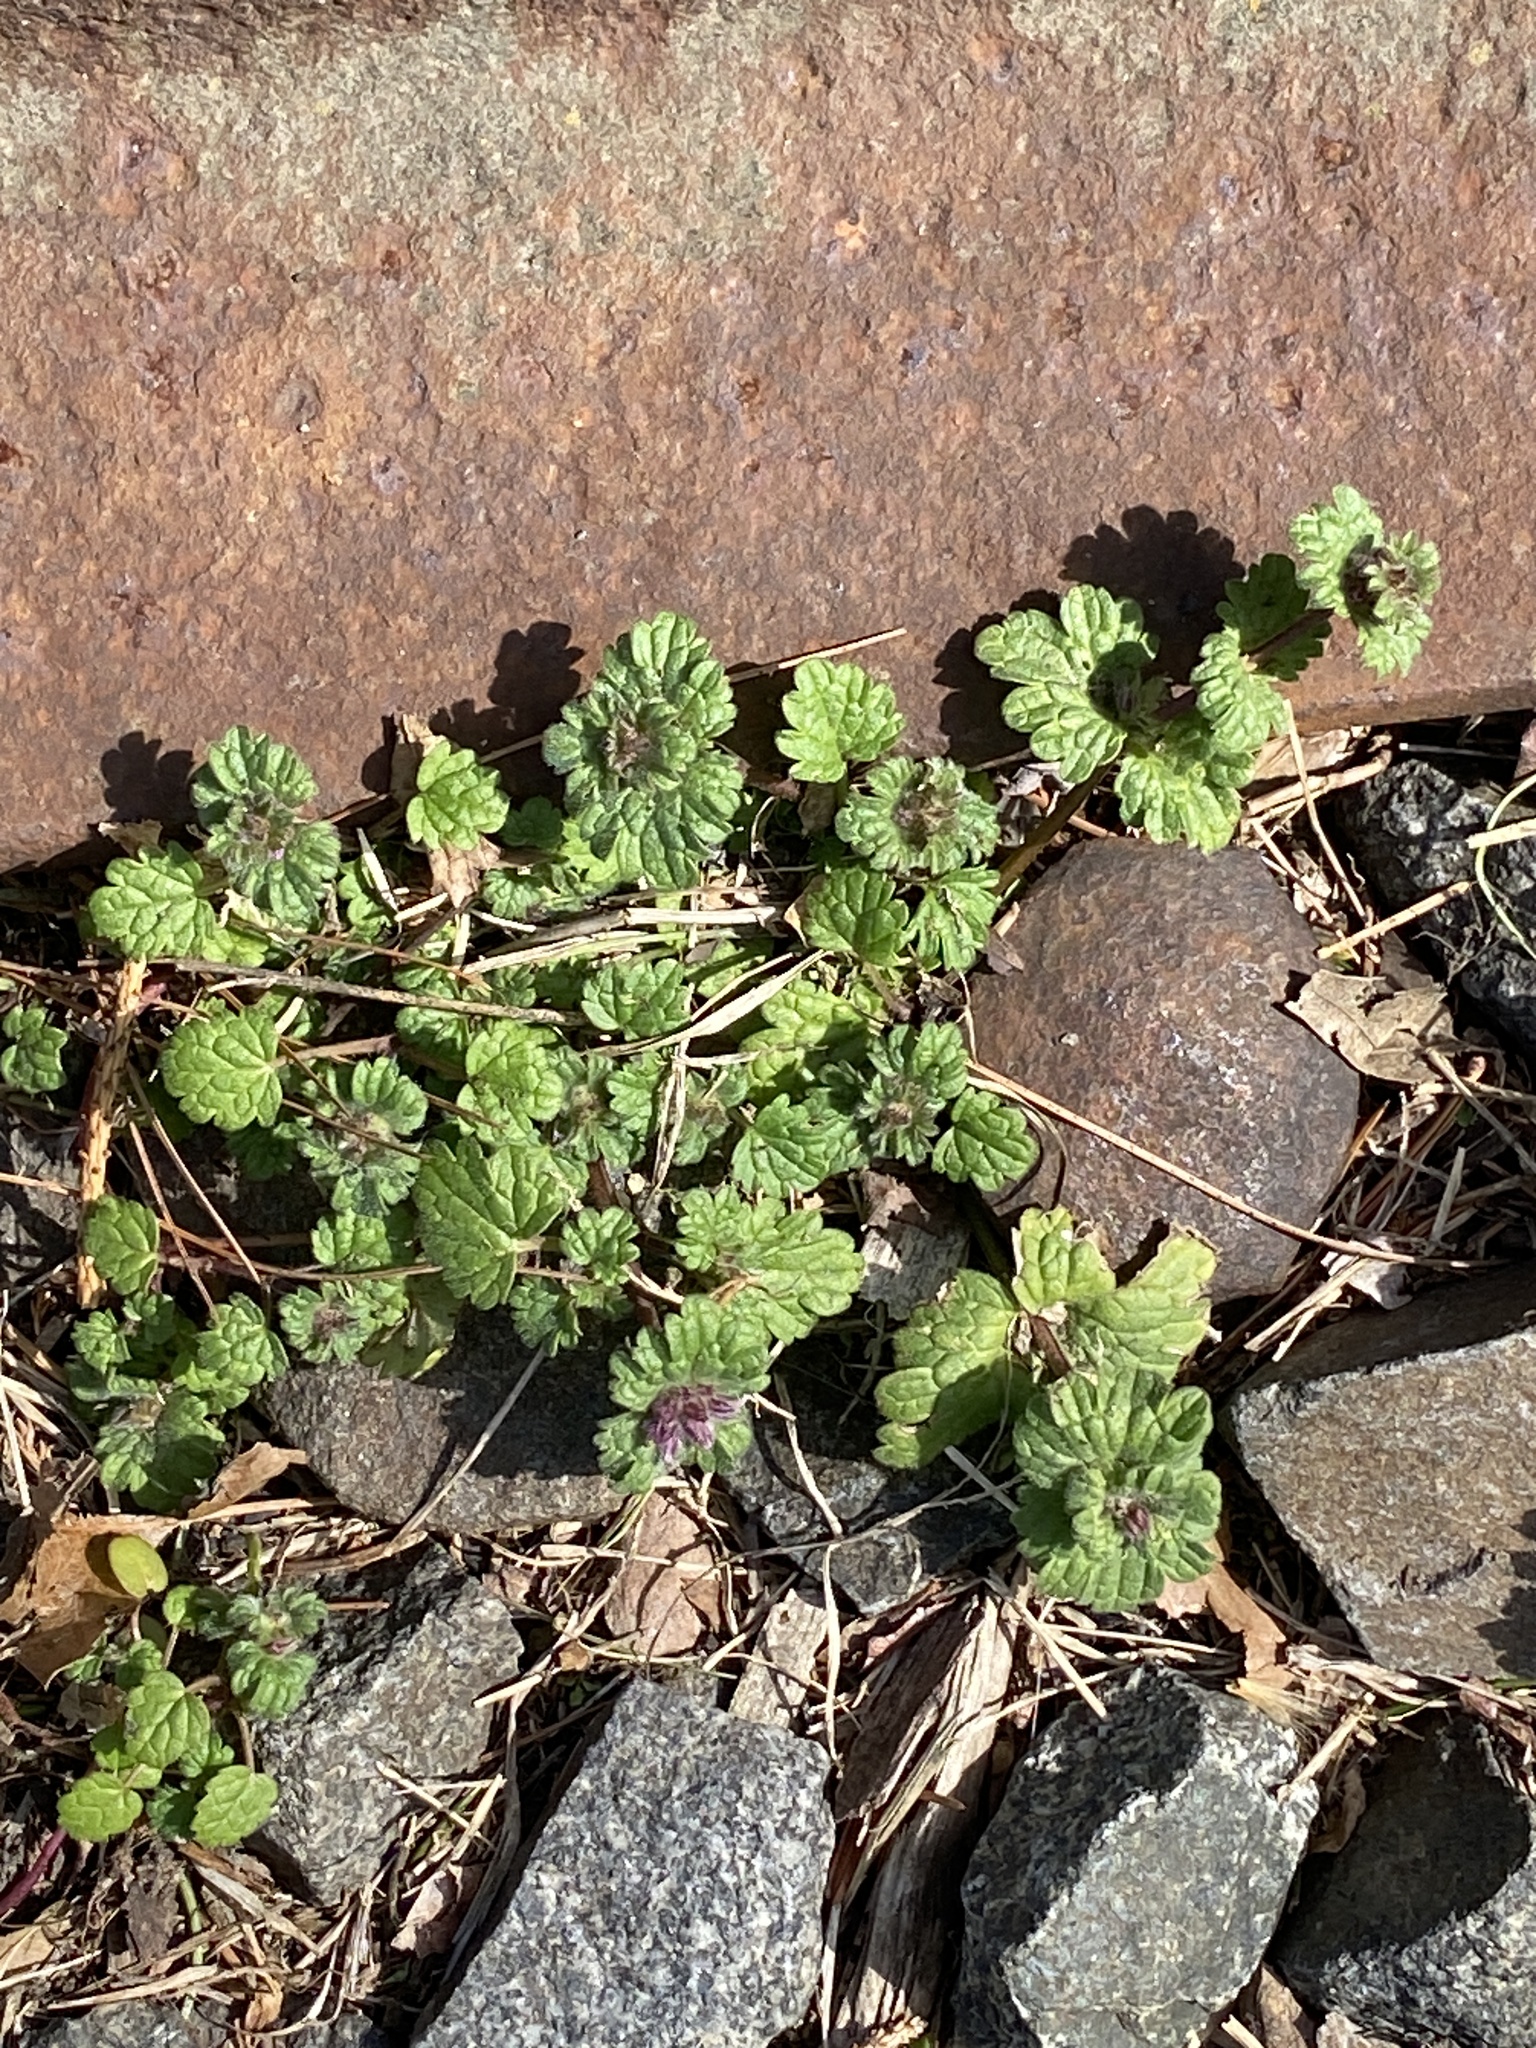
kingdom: Plantae
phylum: Tracheophyta
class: Magnoliopsida
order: Lamiales
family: Lamiaceae
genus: Lamium
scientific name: Lamium amplexicaule
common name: Henbit dead-nettle
